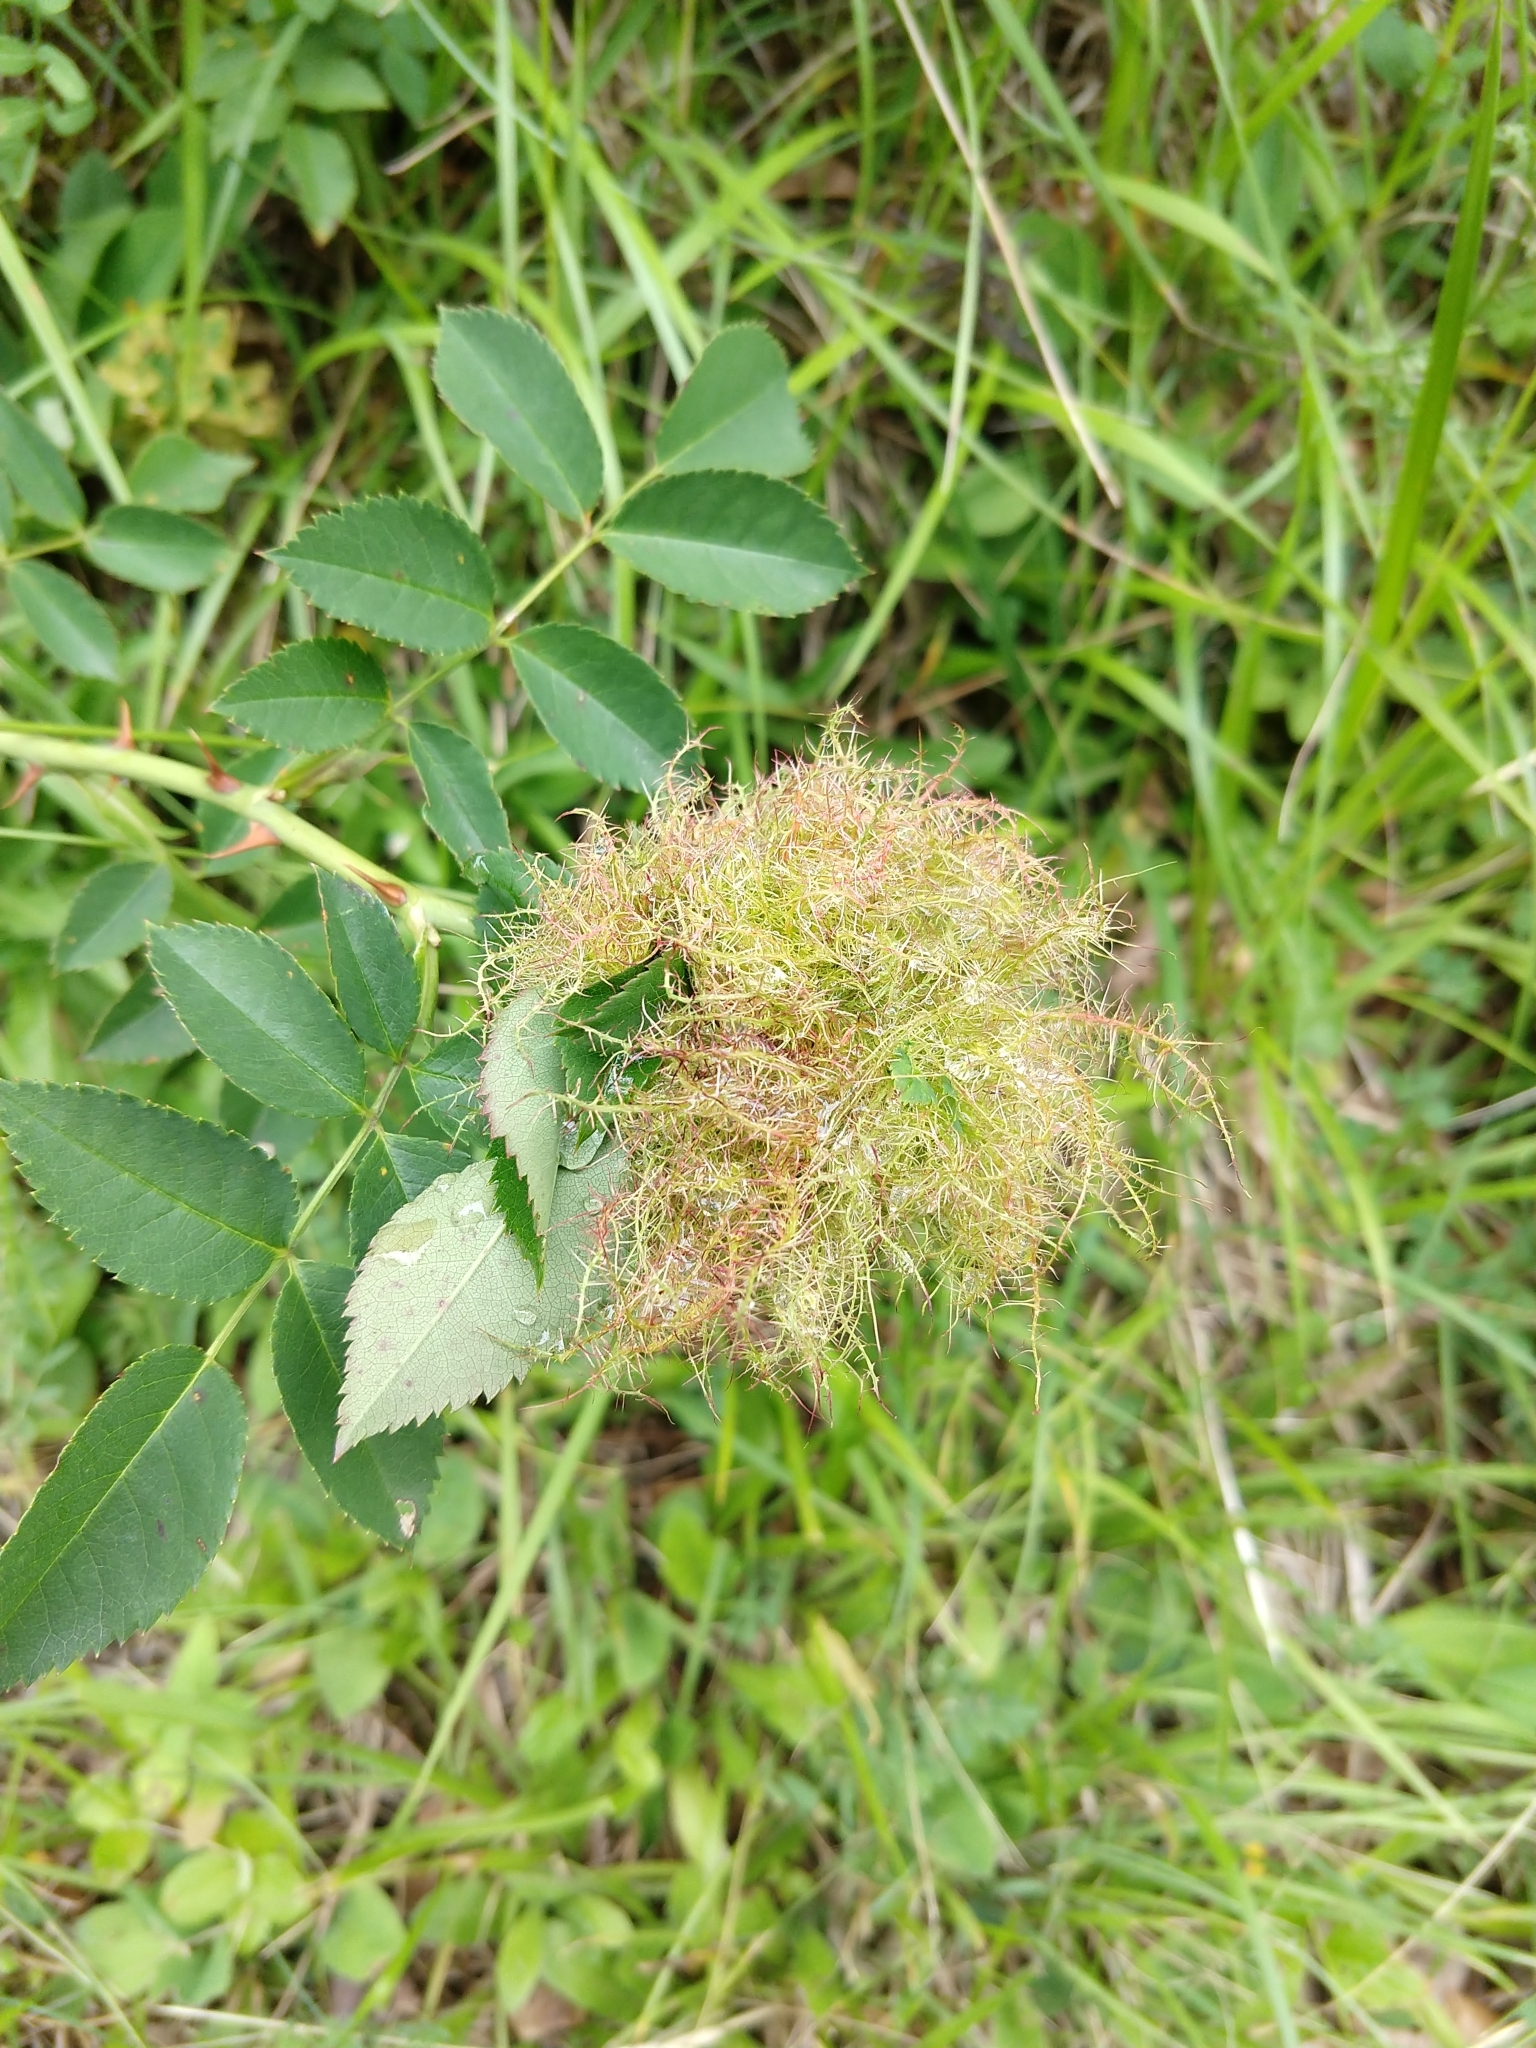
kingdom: Animalia
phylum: Arthropoda
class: Insecta
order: Hymenoptera
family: Cynipidae
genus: Diplolepis
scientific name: Diplolepis rosae
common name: Bedeguar gall
